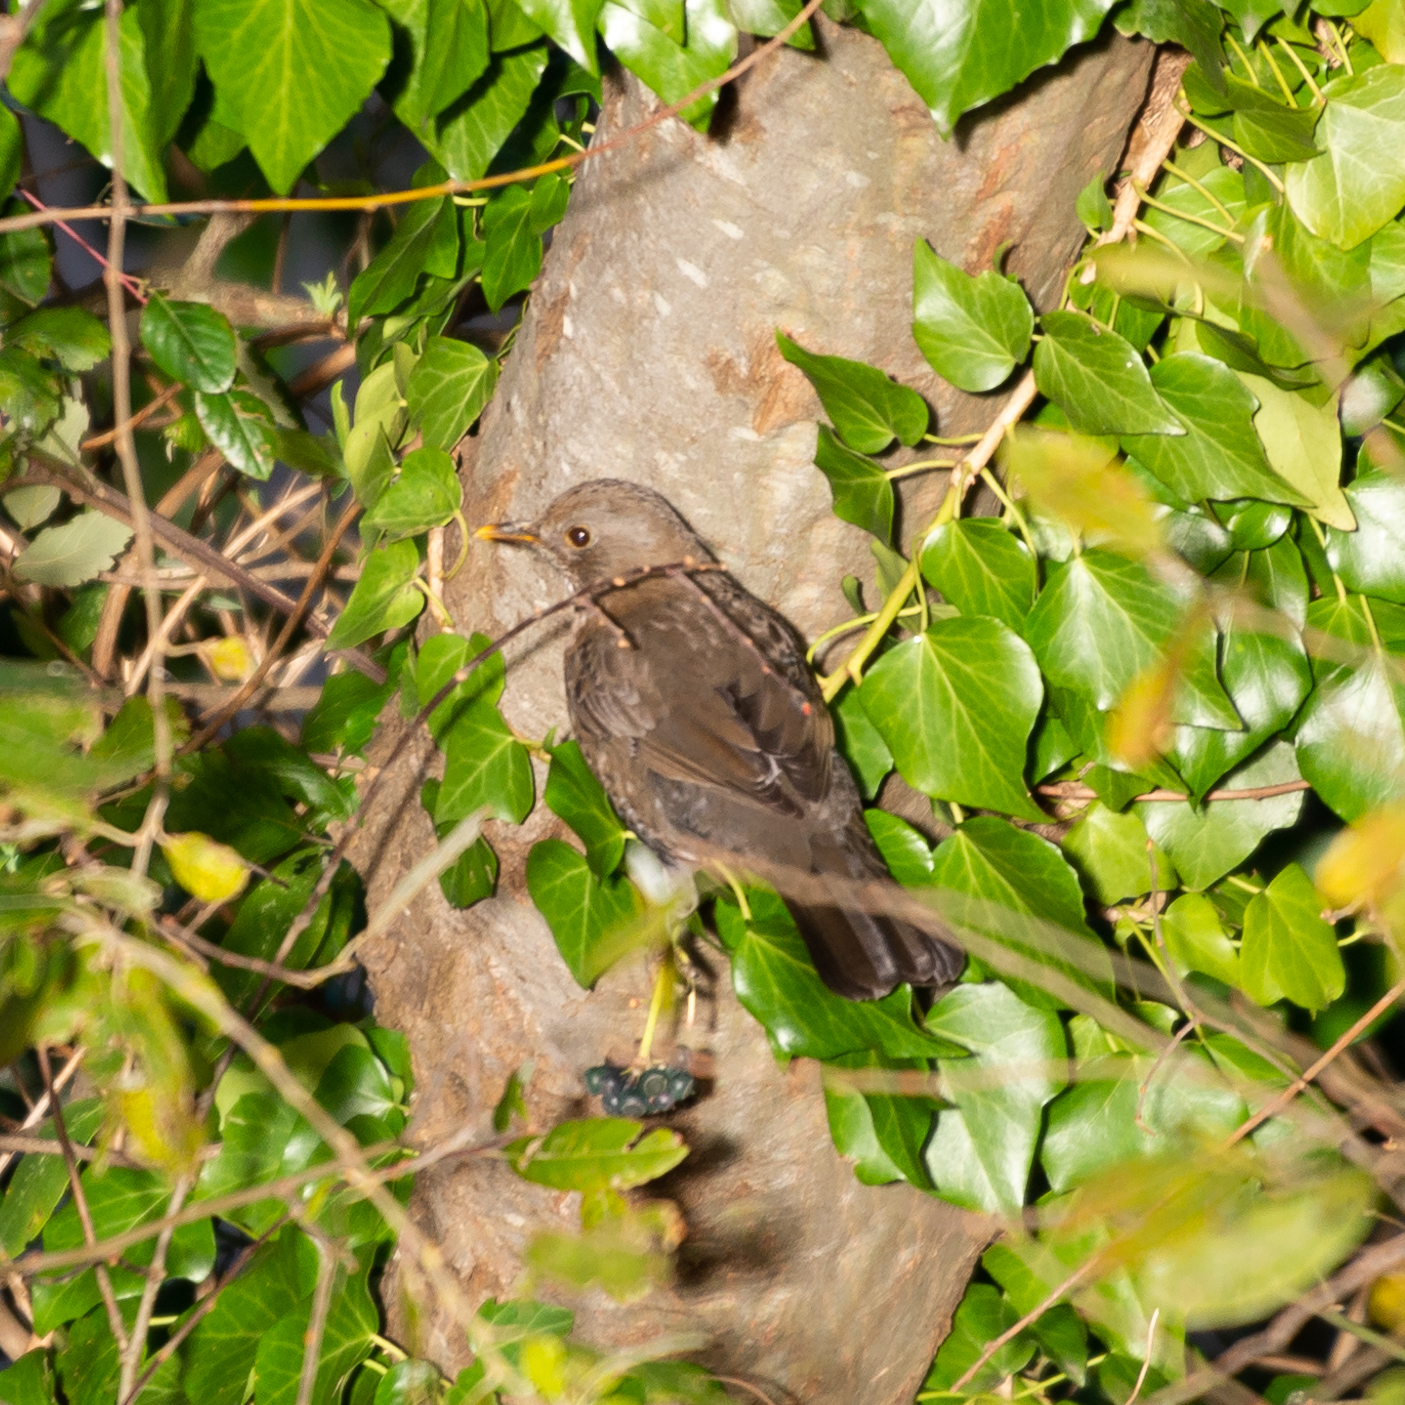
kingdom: Animalia
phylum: Chordata
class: Aves
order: Passeriformes
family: Turdidae
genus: Turdus
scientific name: Turdus merula
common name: Common blackbird
